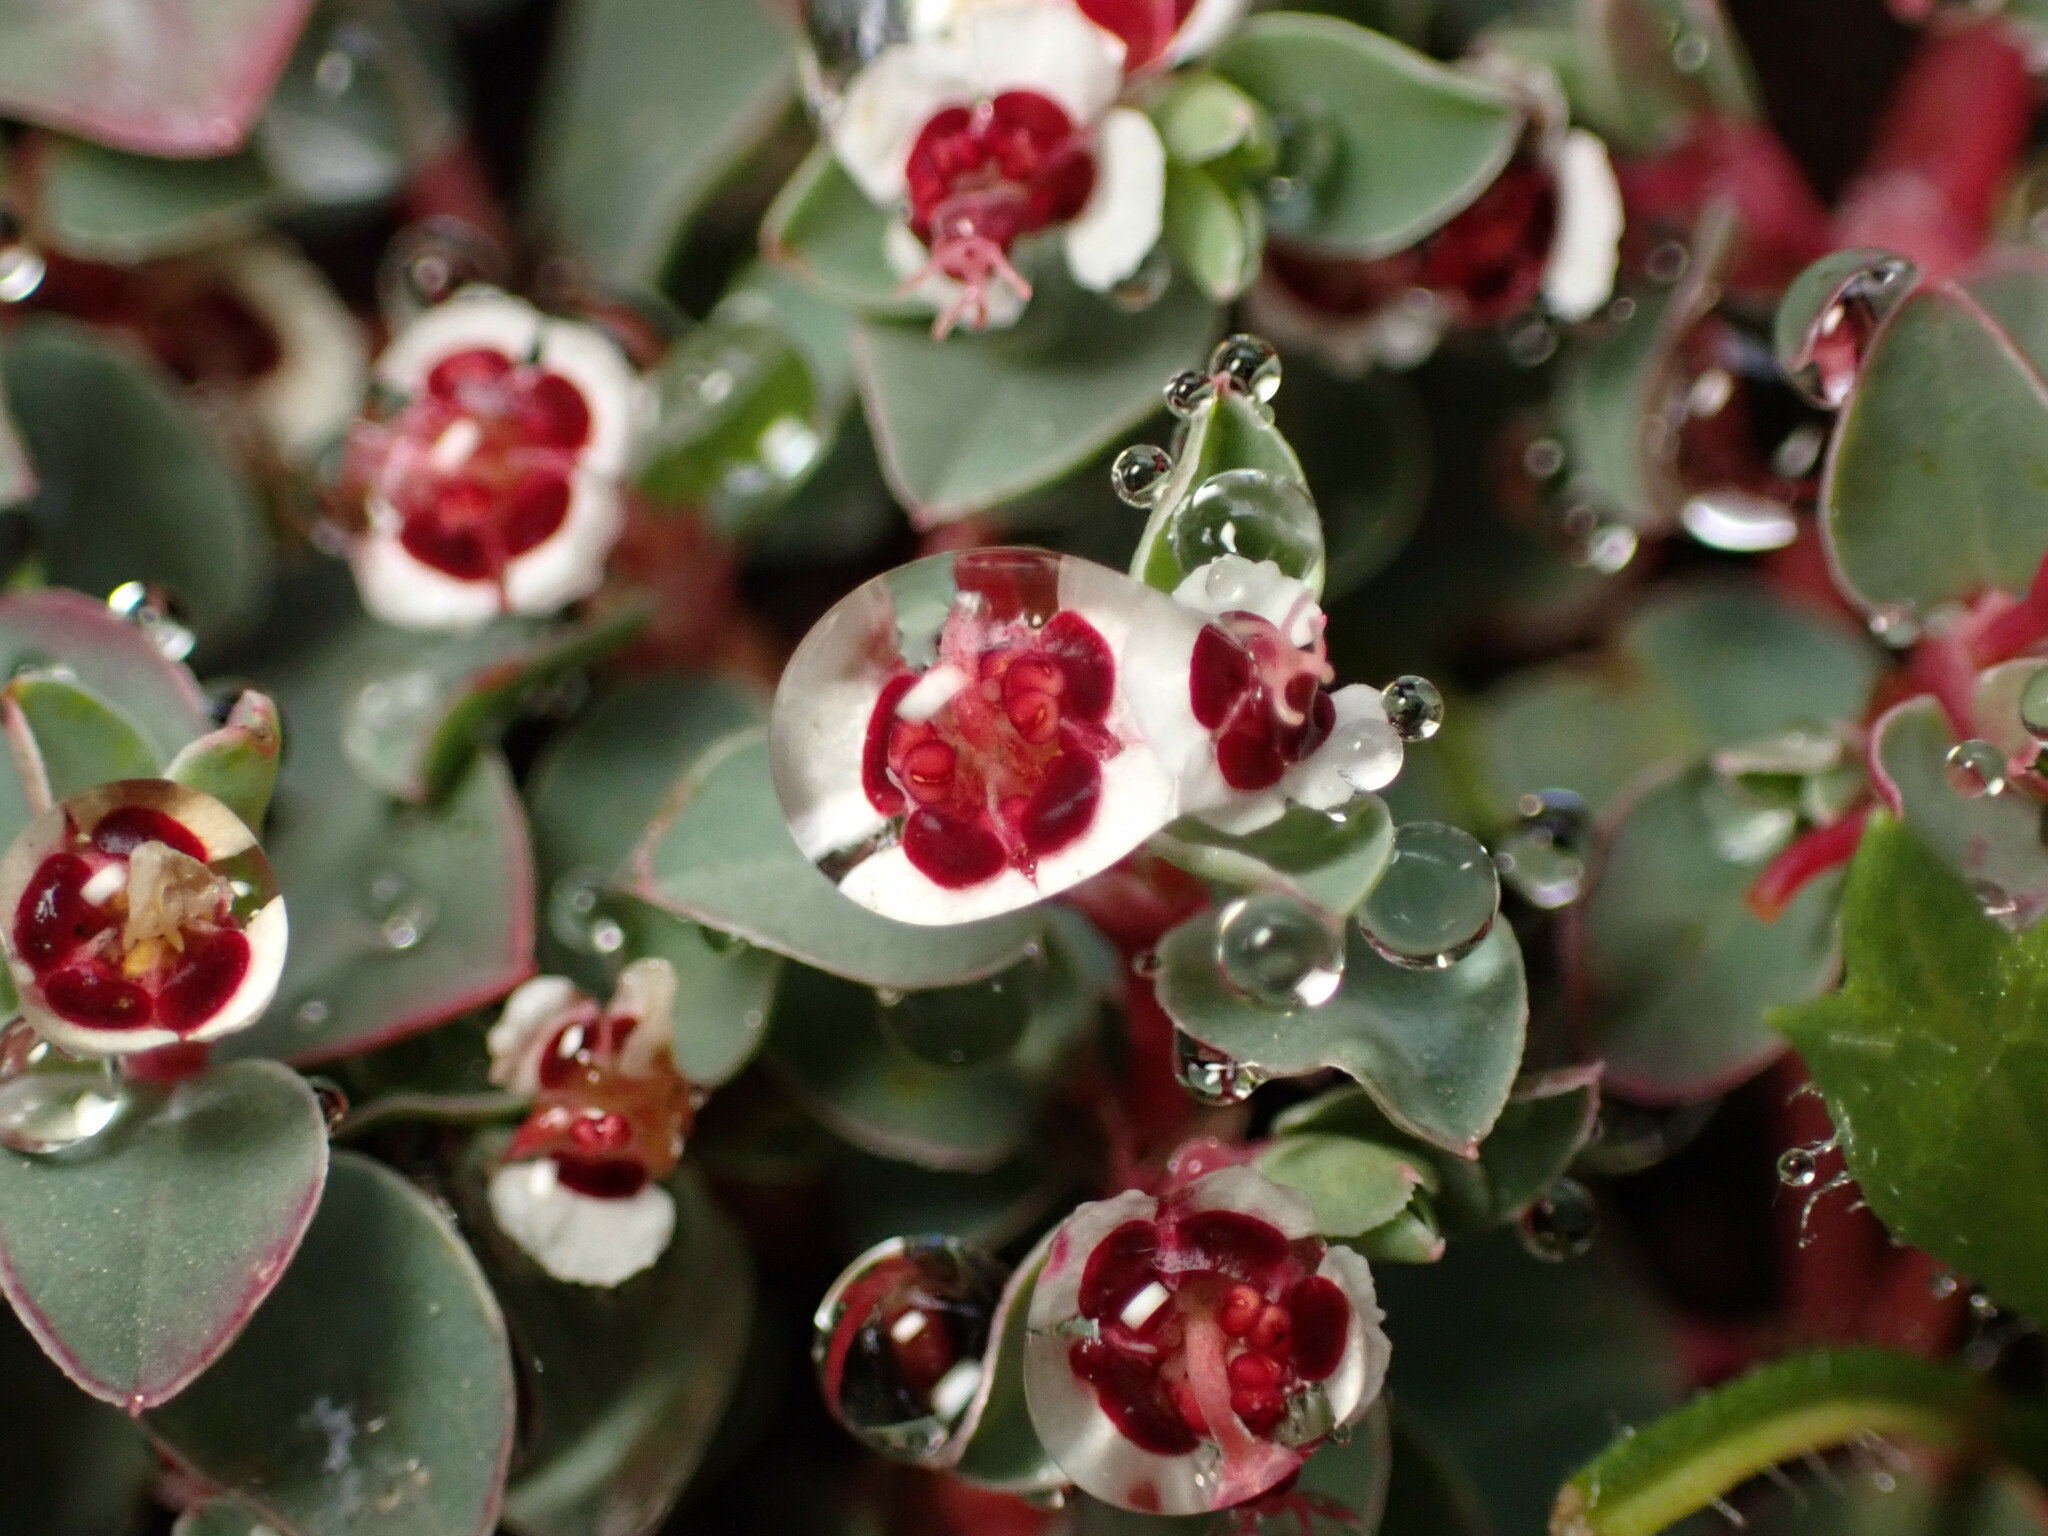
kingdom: Plantae
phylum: Tracheophyta
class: Magnoliopsida
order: Malpighiales
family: Euphorbiaceae
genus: Euphorbia
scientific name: Euphorbia albomarginata
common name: Whitemargin sandmat
